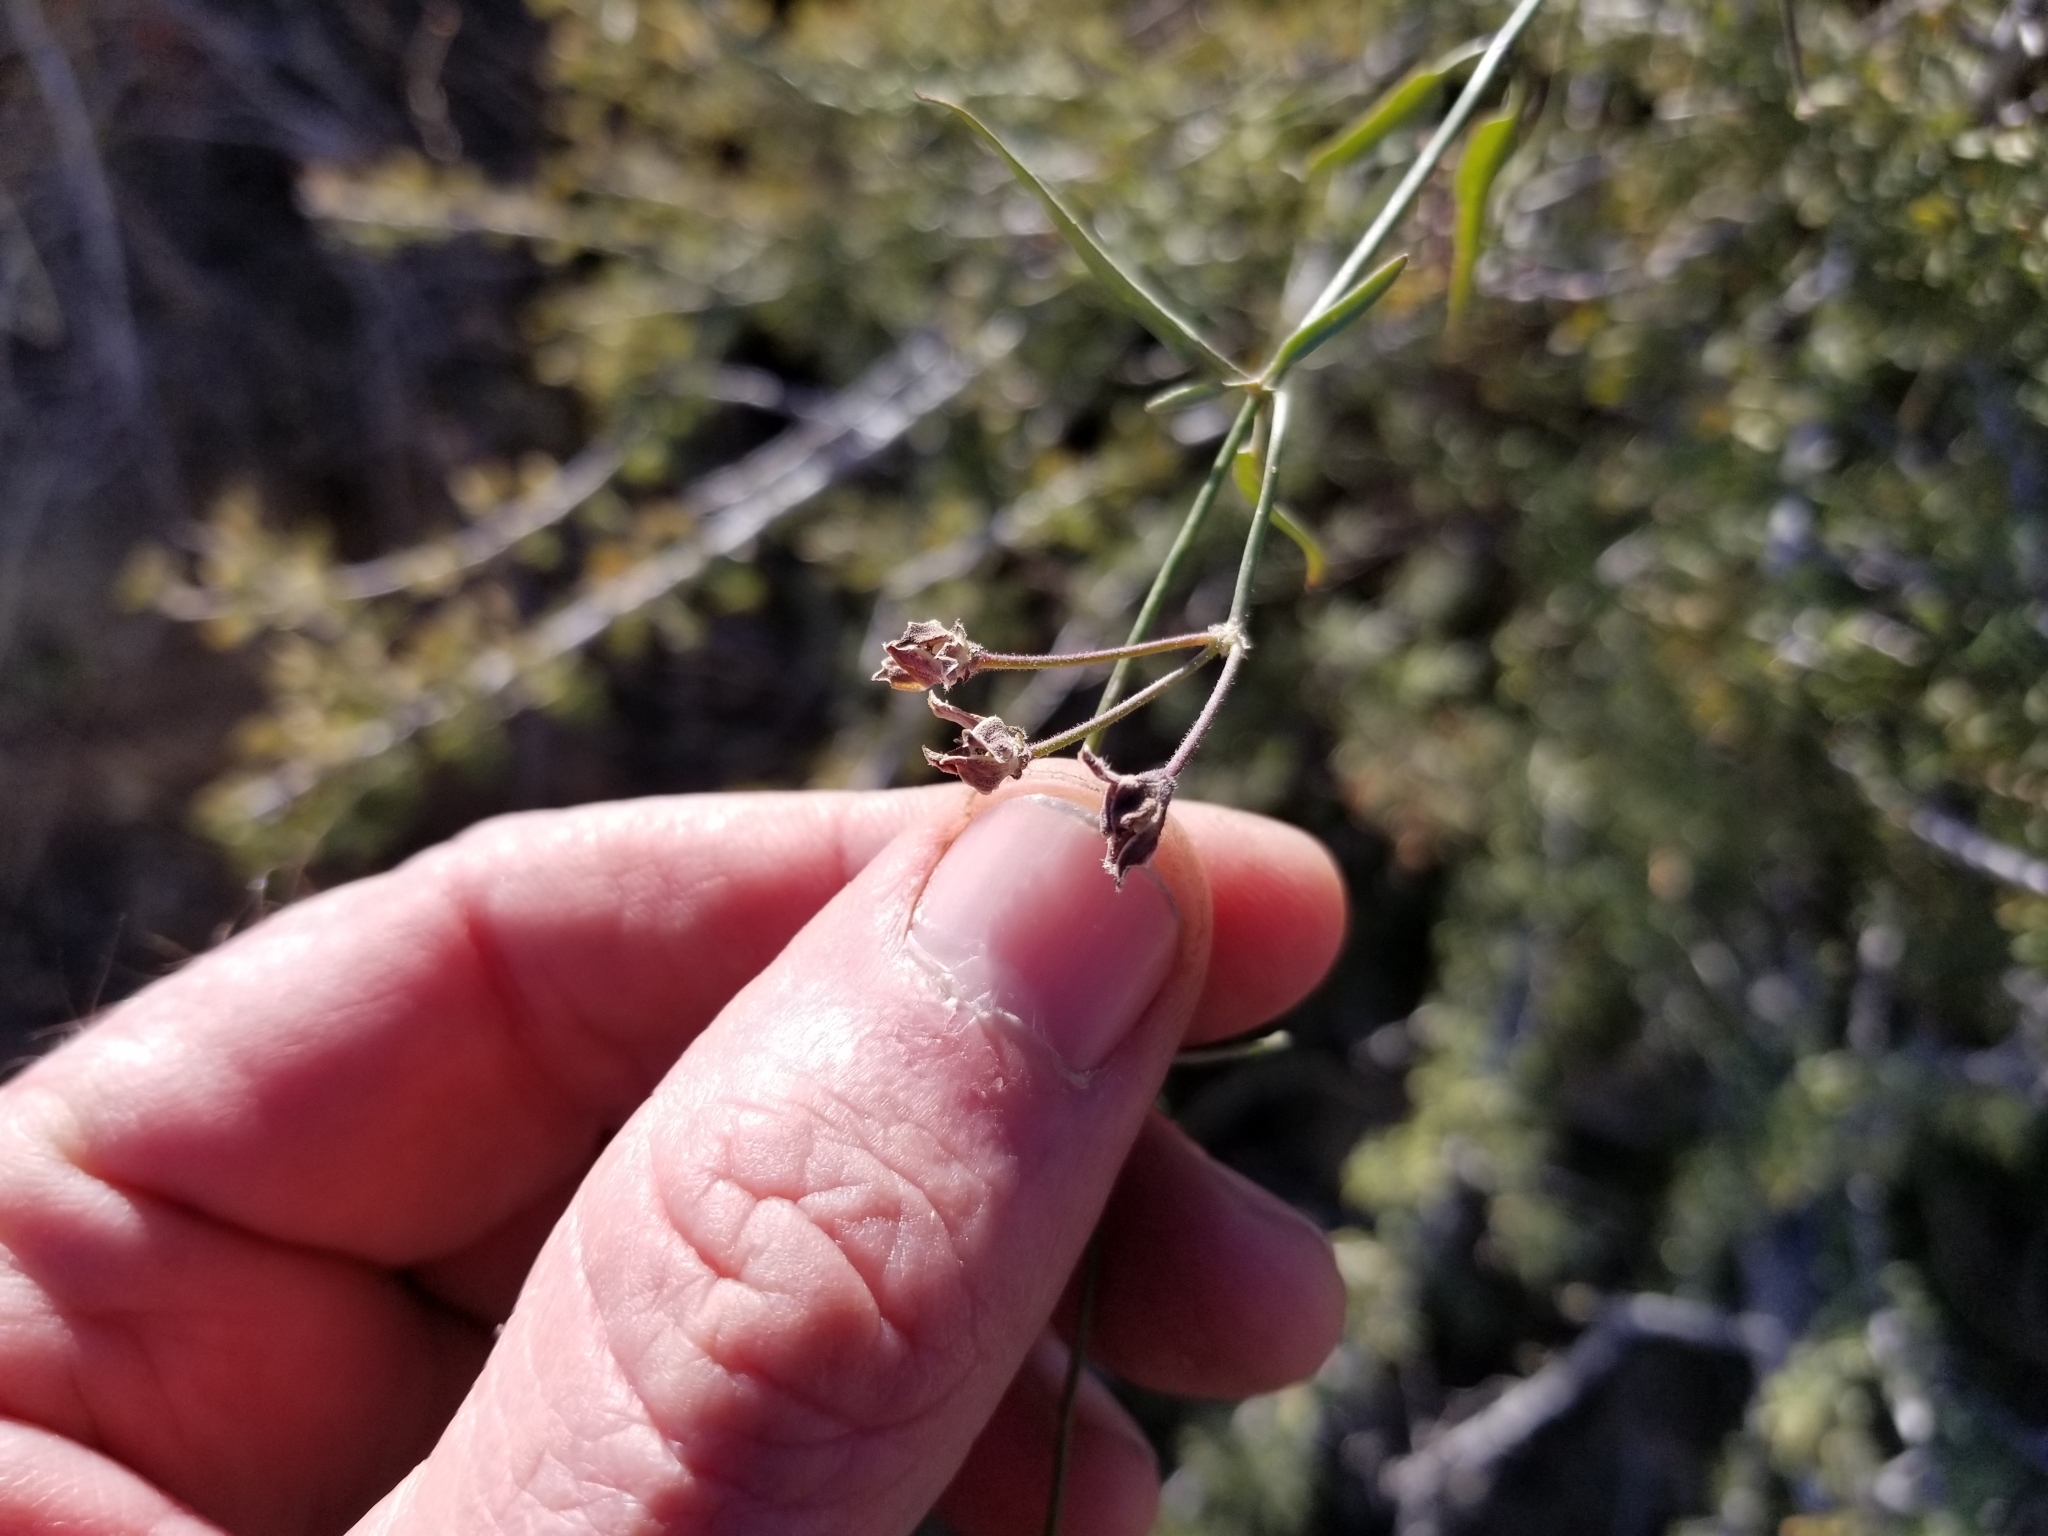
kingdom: Plantae
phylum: Tracheophyta
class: Magnoliopsida
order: Gentianales
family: Apocynaceae
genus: Funastrum
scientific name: Funastrum heterophyllum
